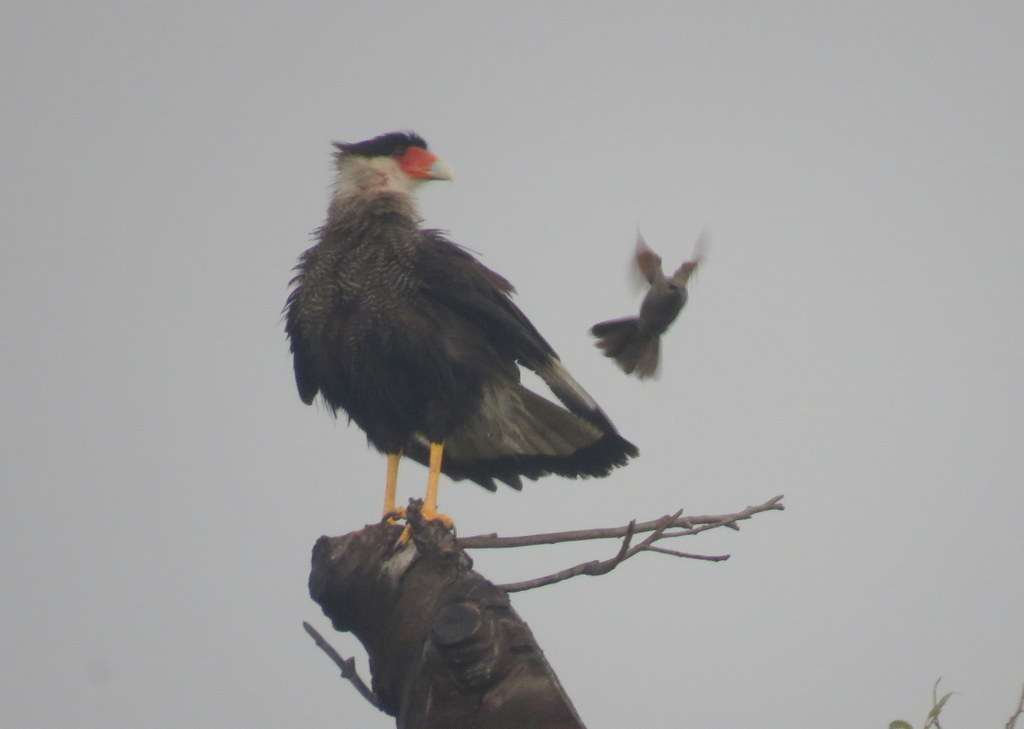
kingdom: Animalia
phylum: Chordata
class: Aves
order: Falconiformes
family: Falconidae
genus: Caracara
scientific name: Caracara plancus
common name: Southern caracara
